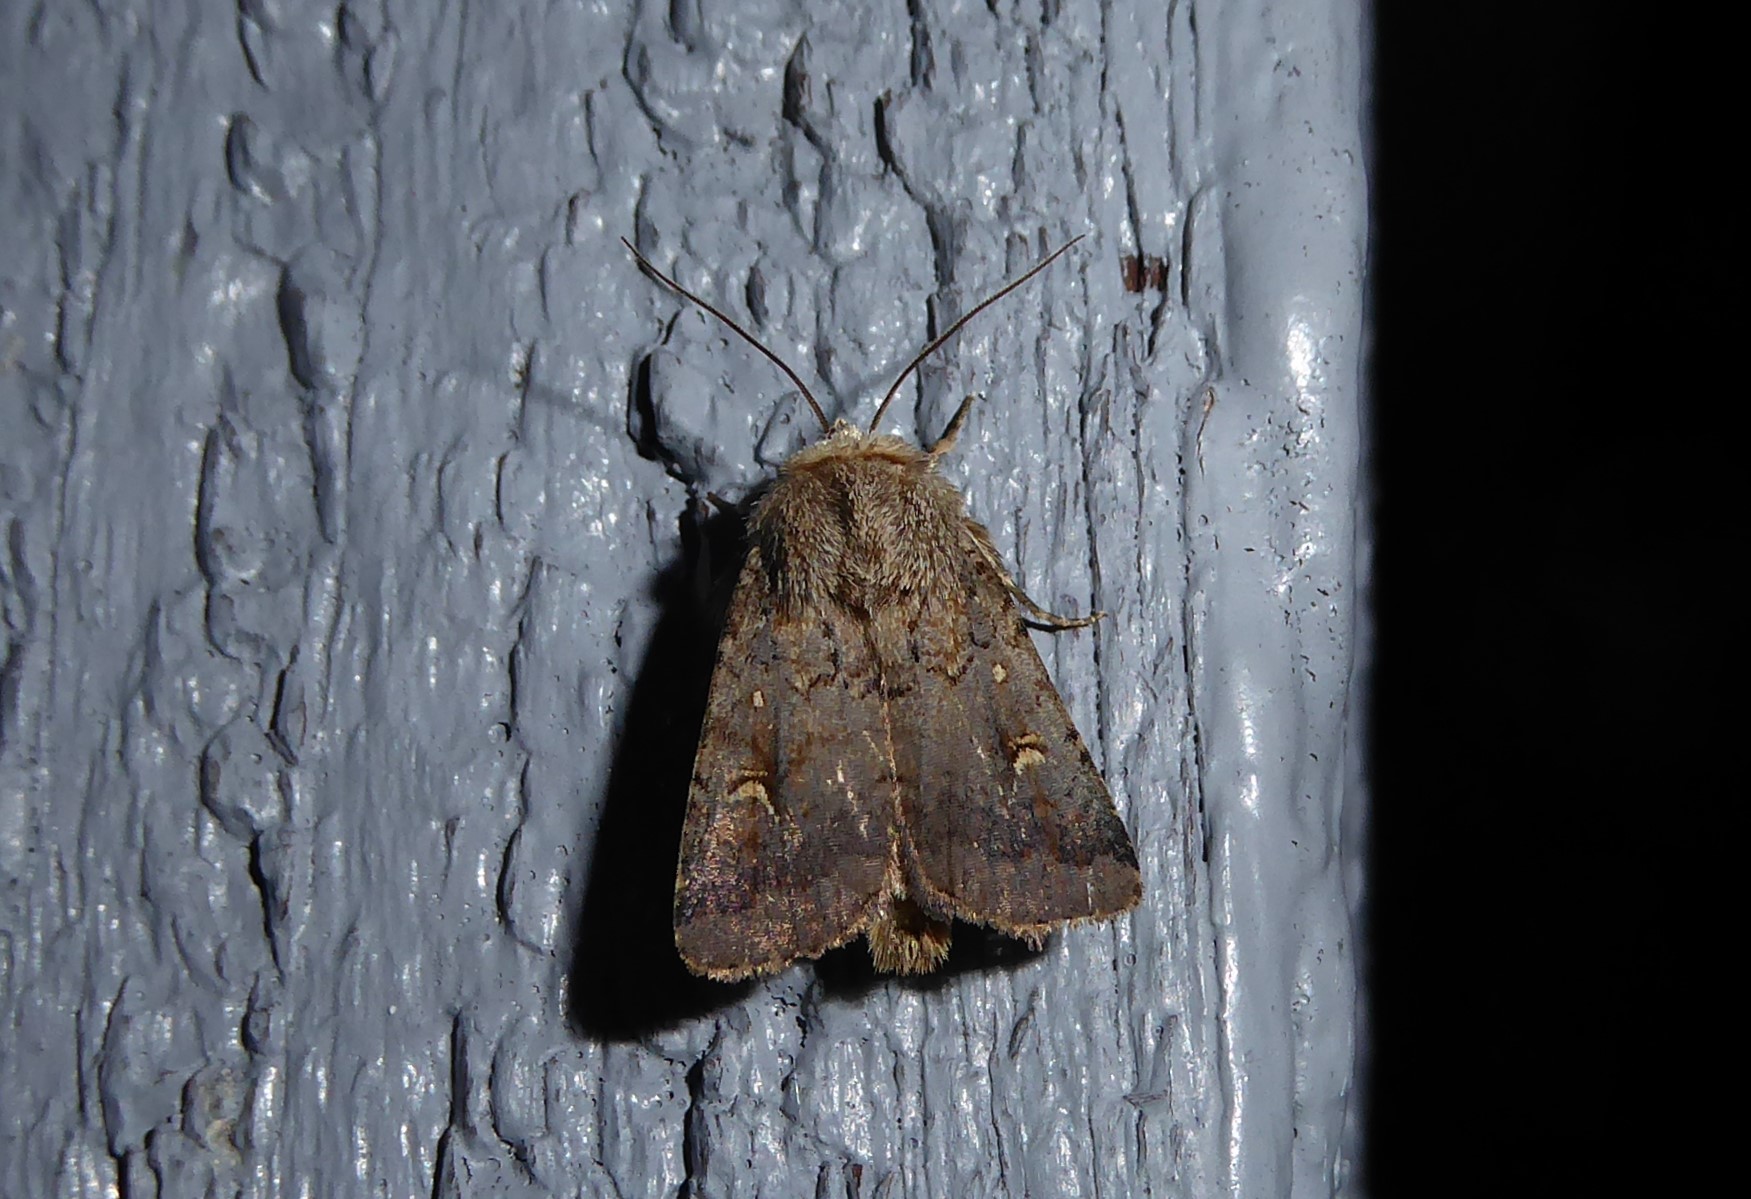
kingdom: Animalia
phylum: Arthropoda
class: Insecta
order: Lepidoptera
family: Noctuidae
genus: Proteuxoa
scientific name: Proteuxoa tetronycha
